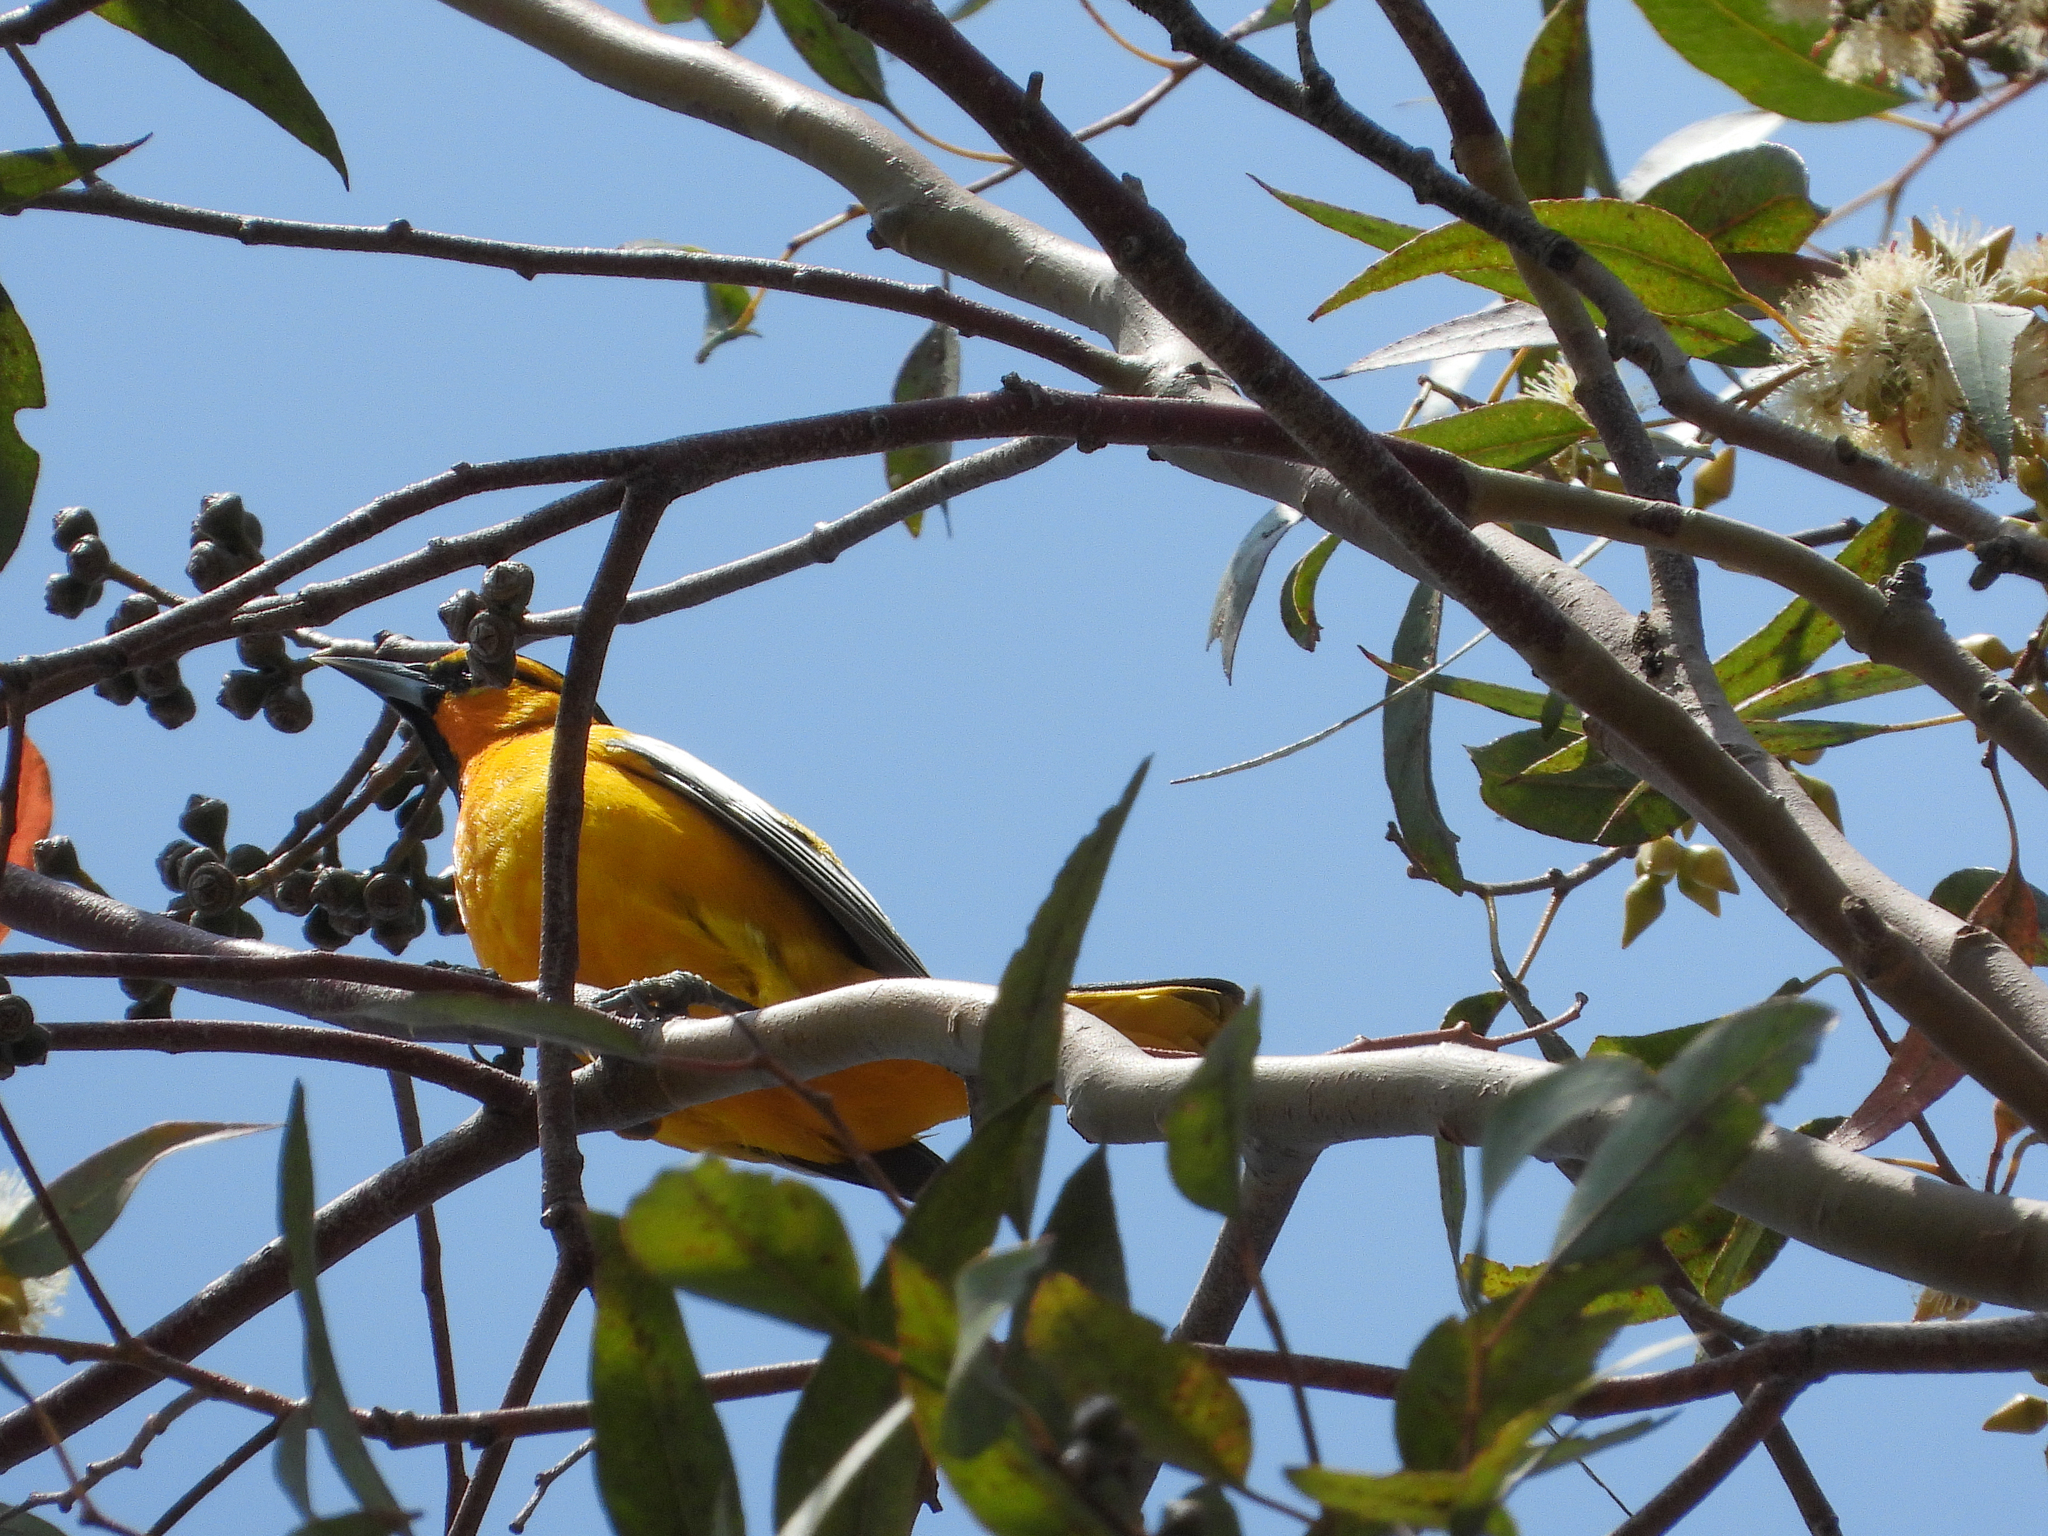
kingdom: Animalia
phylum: Chordata
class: Aves
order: Passeriformes
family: Icteridae
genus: Icterus
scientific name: Icterus bullockii
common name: Bullock's oriole
